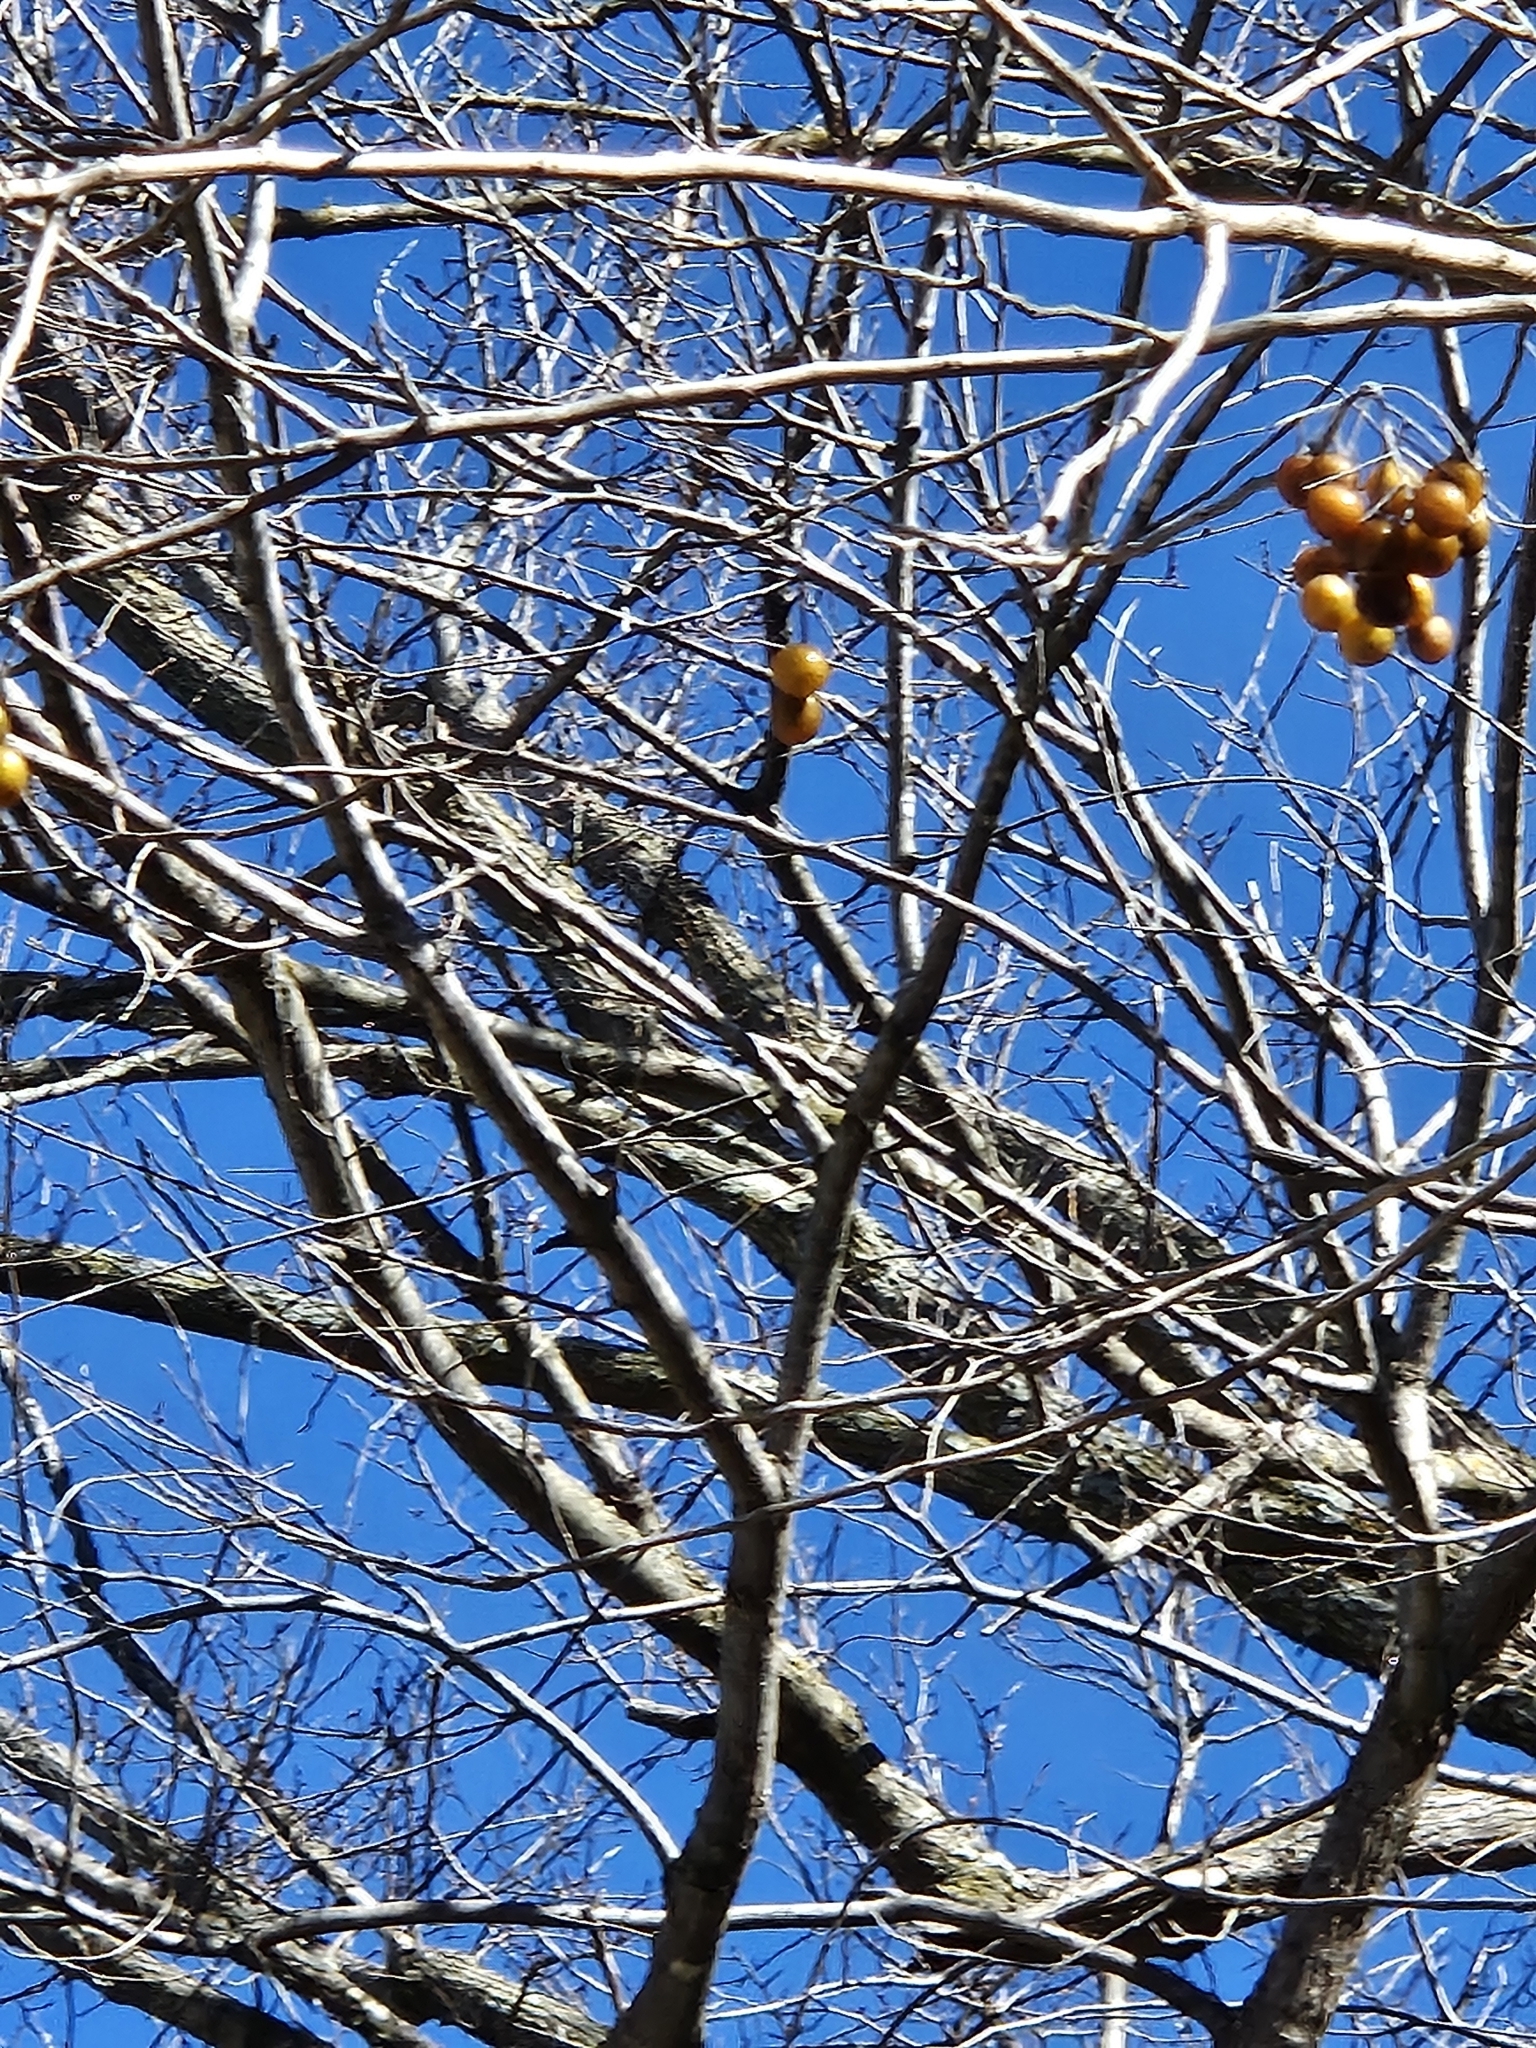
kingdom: Plantae
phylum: Tracheophyta
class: Magnoliopsida
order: Sapindales
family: Sapindaceae
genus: Sapindus
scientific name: Sapindus drummondii
